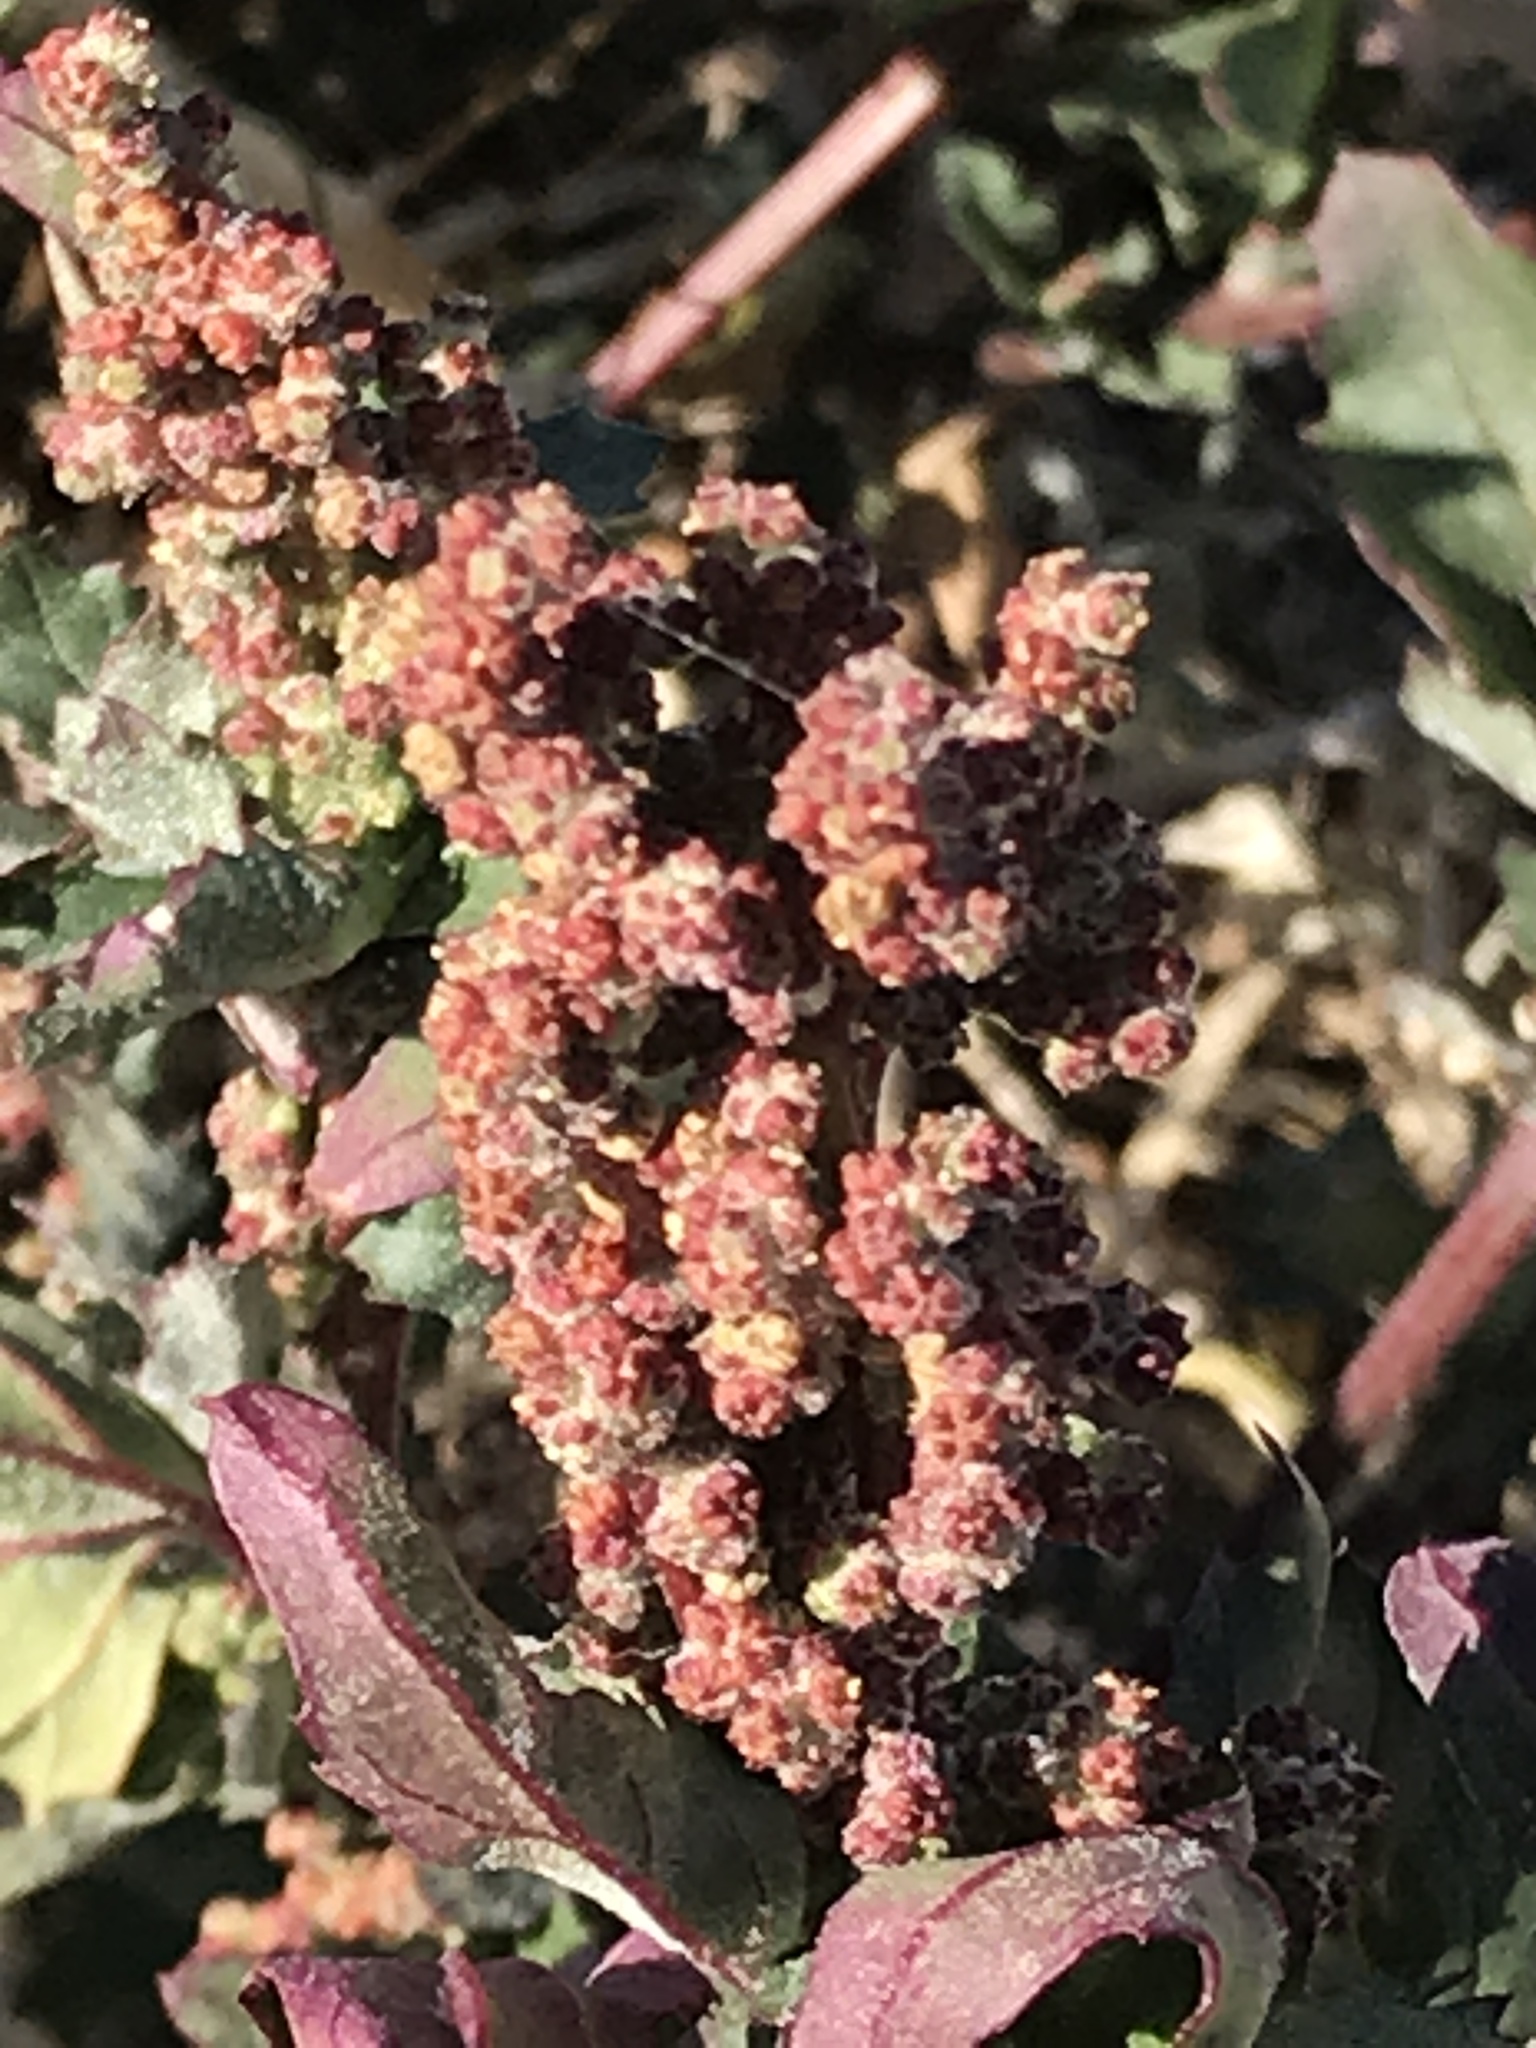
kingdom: Plantae
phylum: Tracheophyta
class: Magnoliopsida
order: Caryophyllales
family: Amaranthaceae
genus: Chenopodiastrum
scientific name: Chenopodiastrum murale
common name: Sowbane
